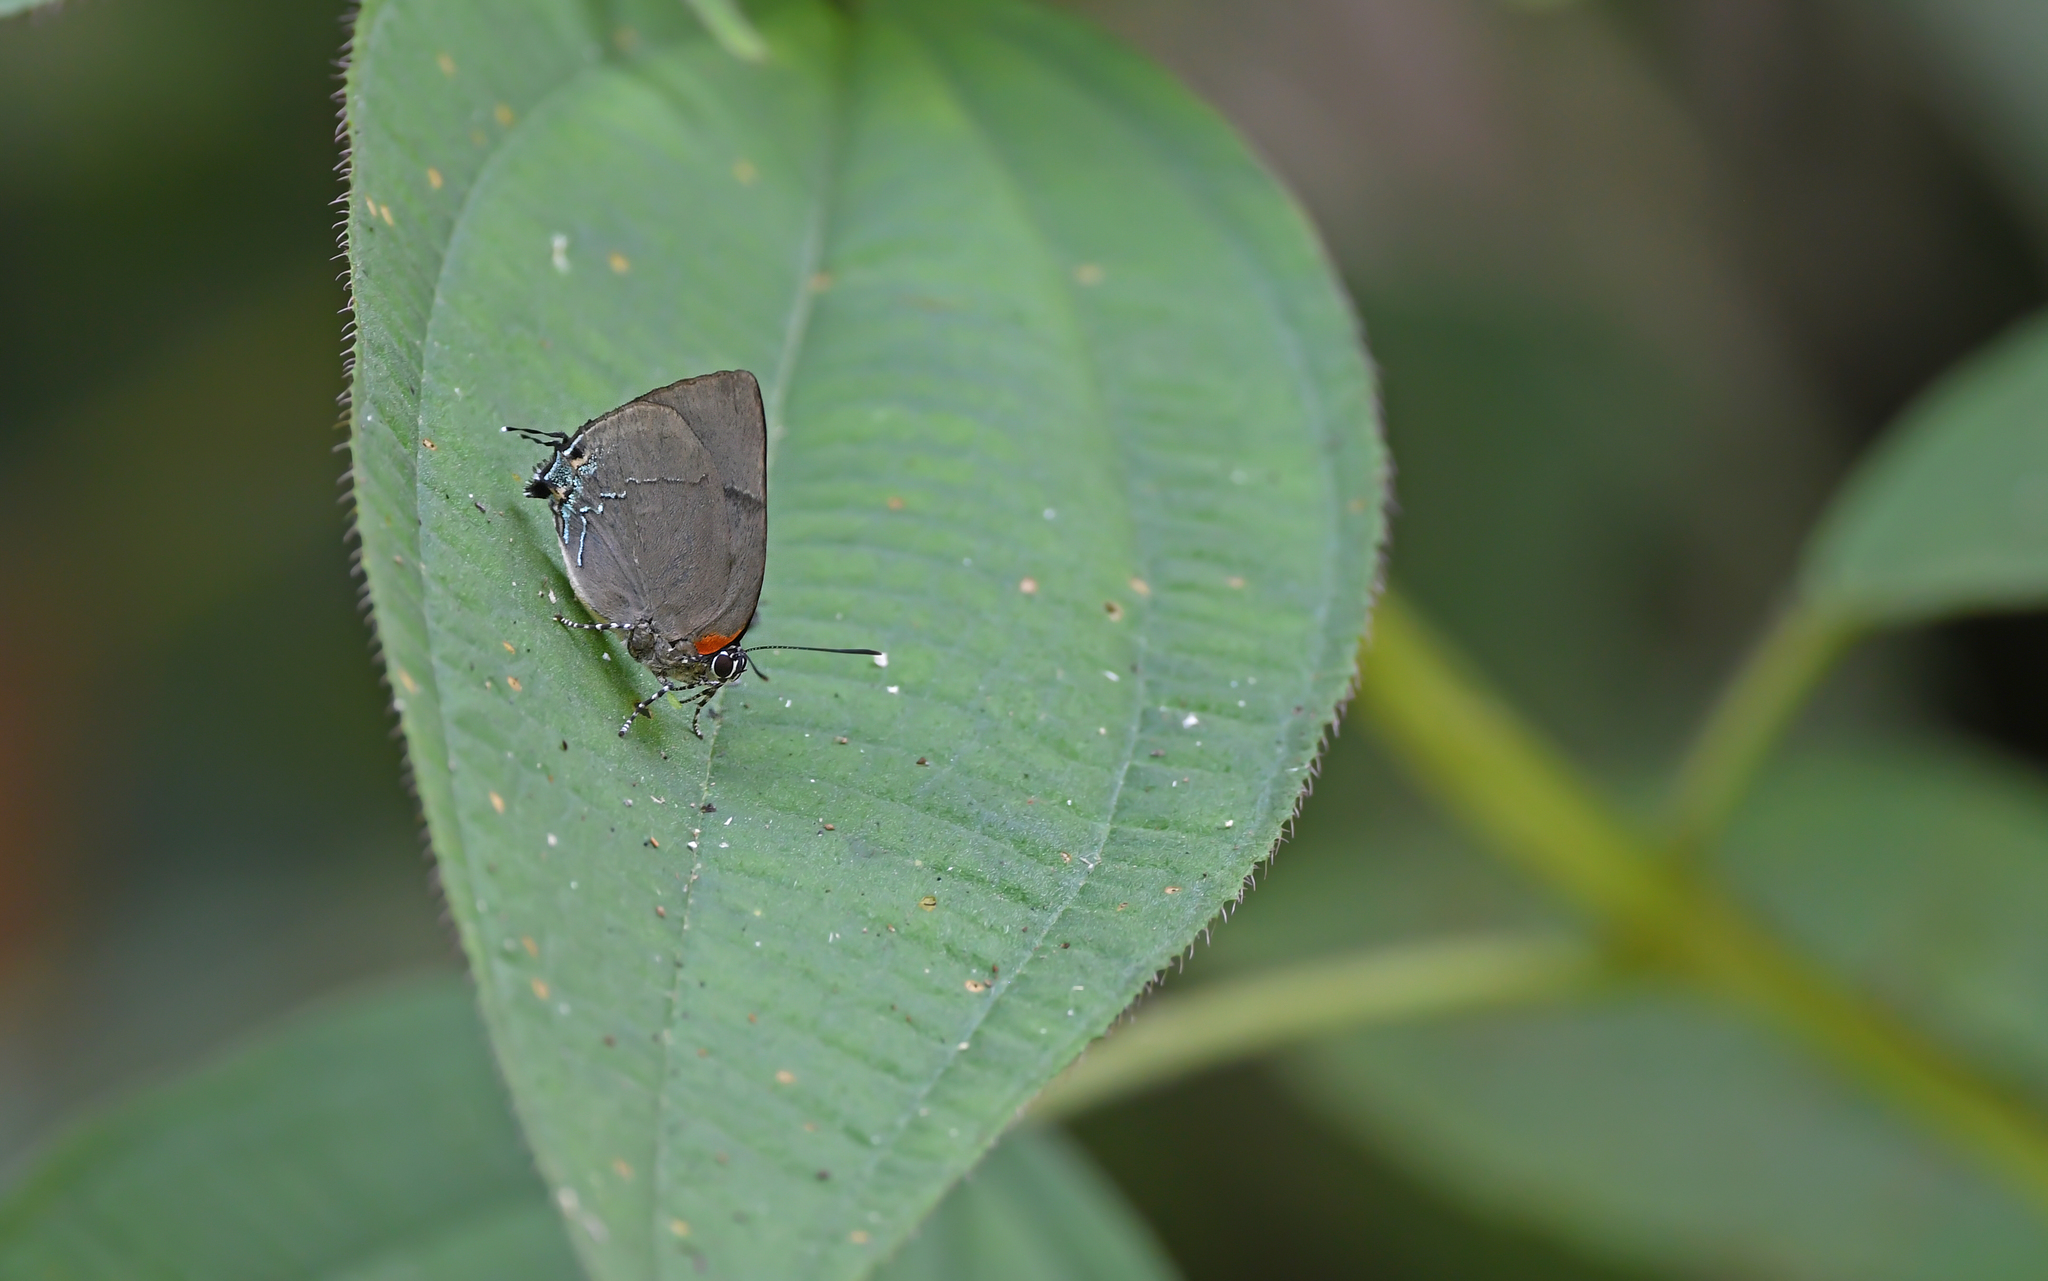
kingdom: Animalia
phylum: Arthropoda
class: Insecta
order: Lepidoptera
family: Lycaenidae
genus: Panthiades
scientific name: Panthiades bitias
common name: Bitias hairstreak
